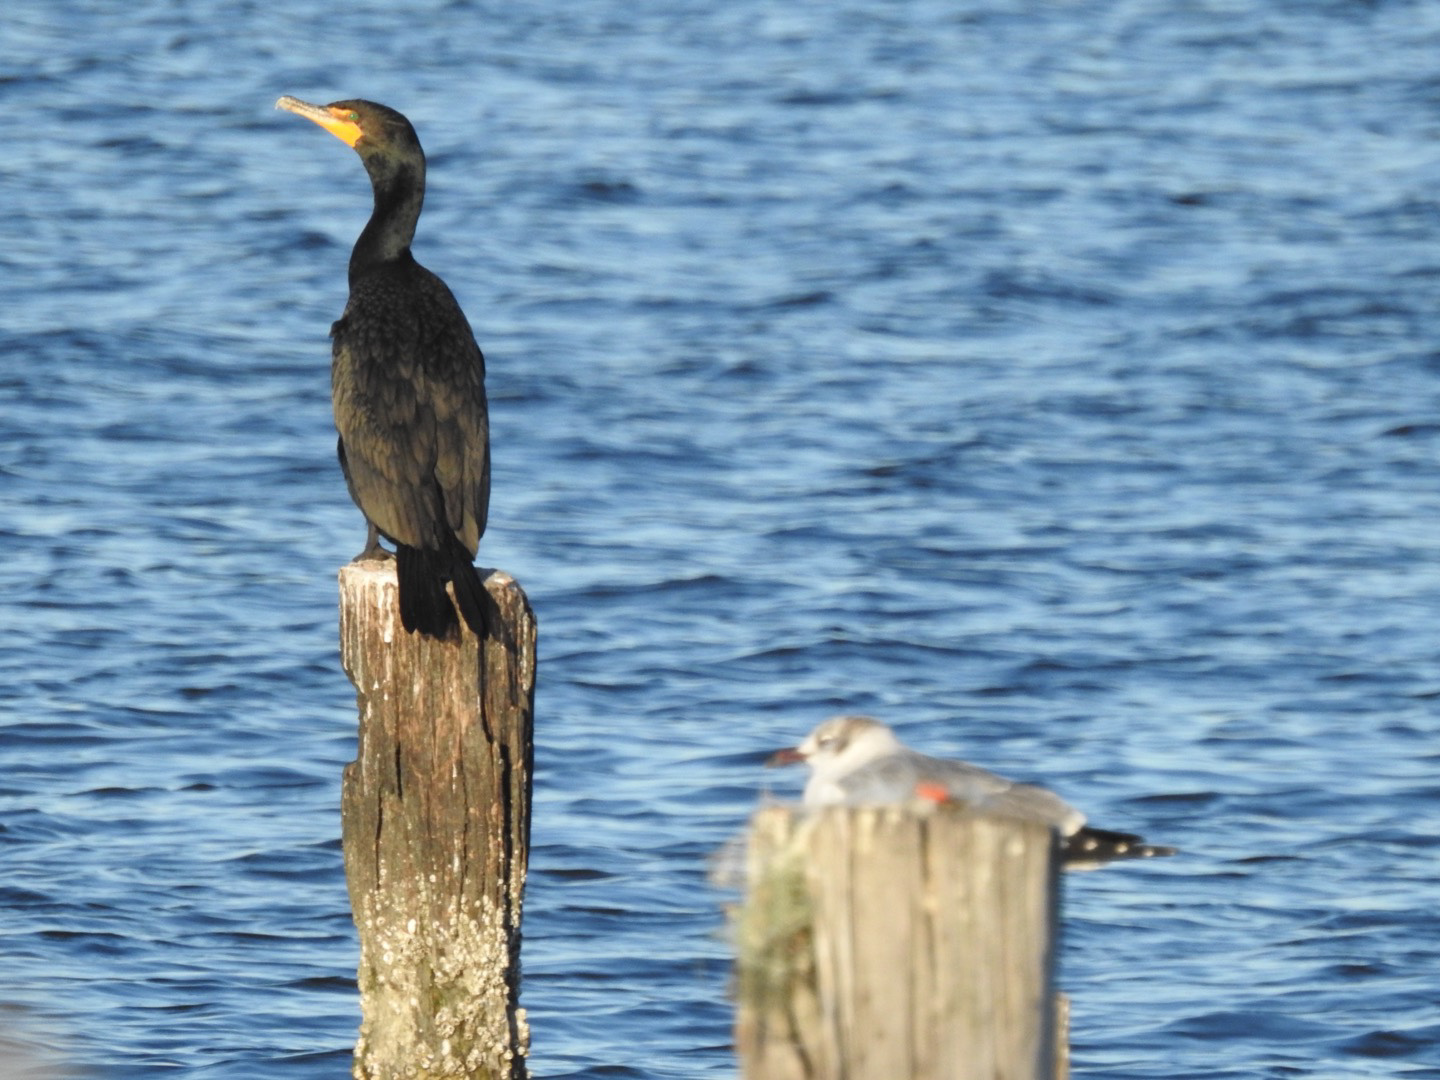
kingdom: Animalia
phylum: Chordata
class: Aves
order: Suliformes
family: Phalacrocoracidae
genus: Phalacrocorax
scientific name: Phalacrocorax auritus
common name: Double-crested cormorant
